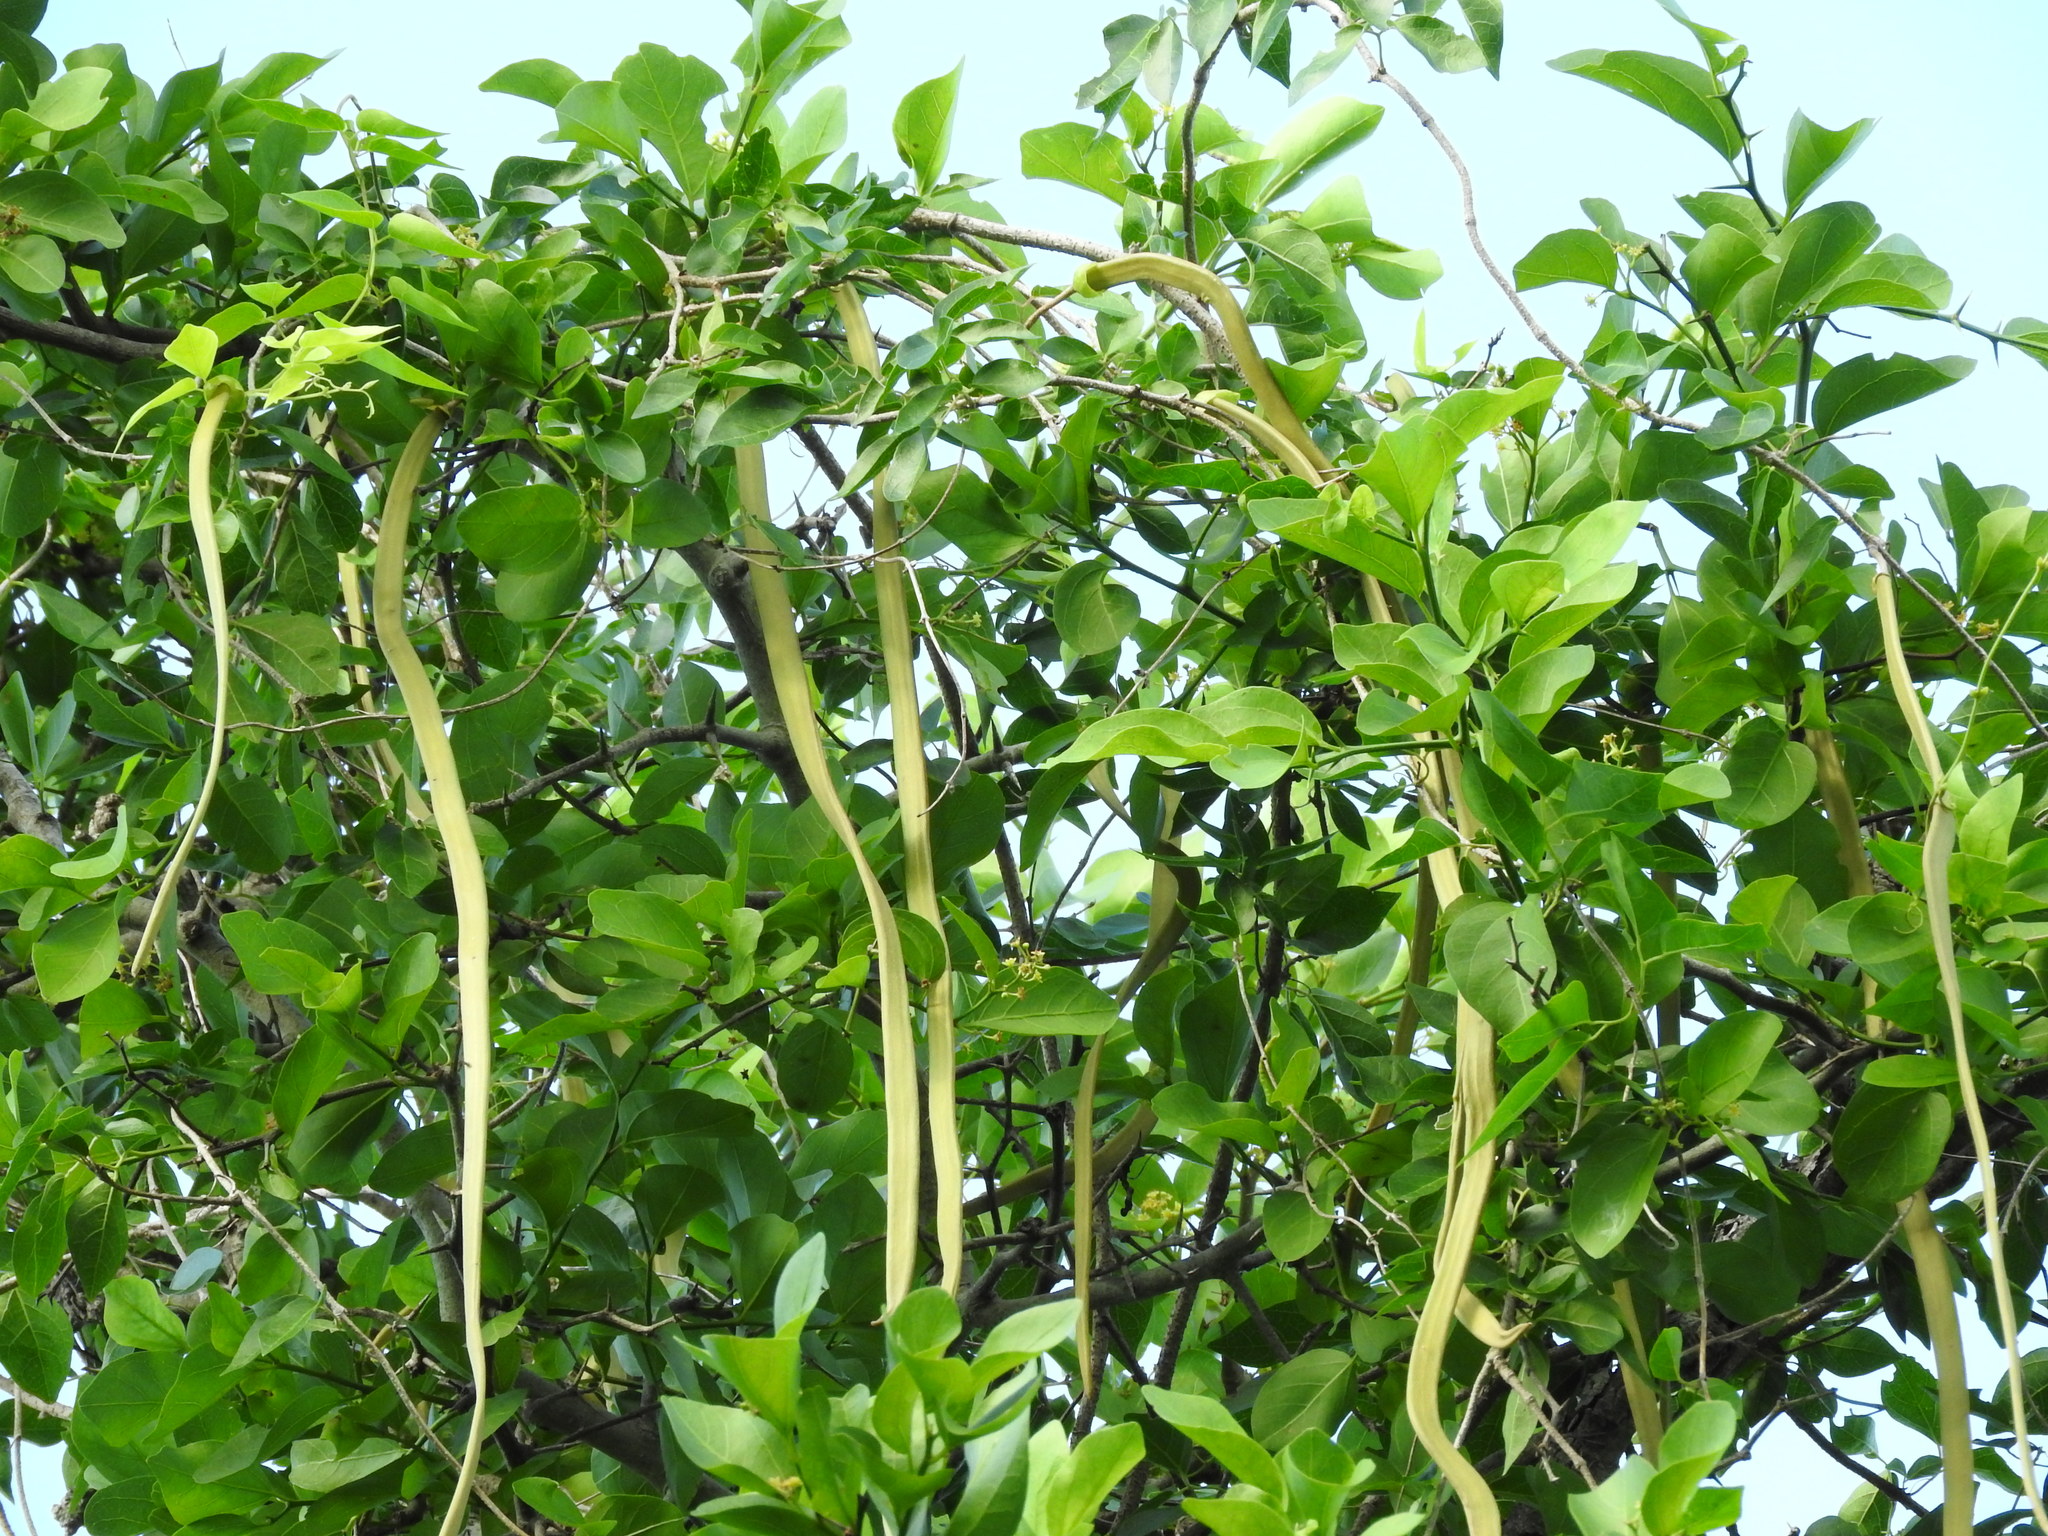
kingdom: Plantae
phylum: Tracheophyta
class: Magnoliopsida
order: Lamiales
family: Bignoniaceae
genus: Dolichandra
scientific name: Dolichandra unguis-cati
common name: Catclaw vine
